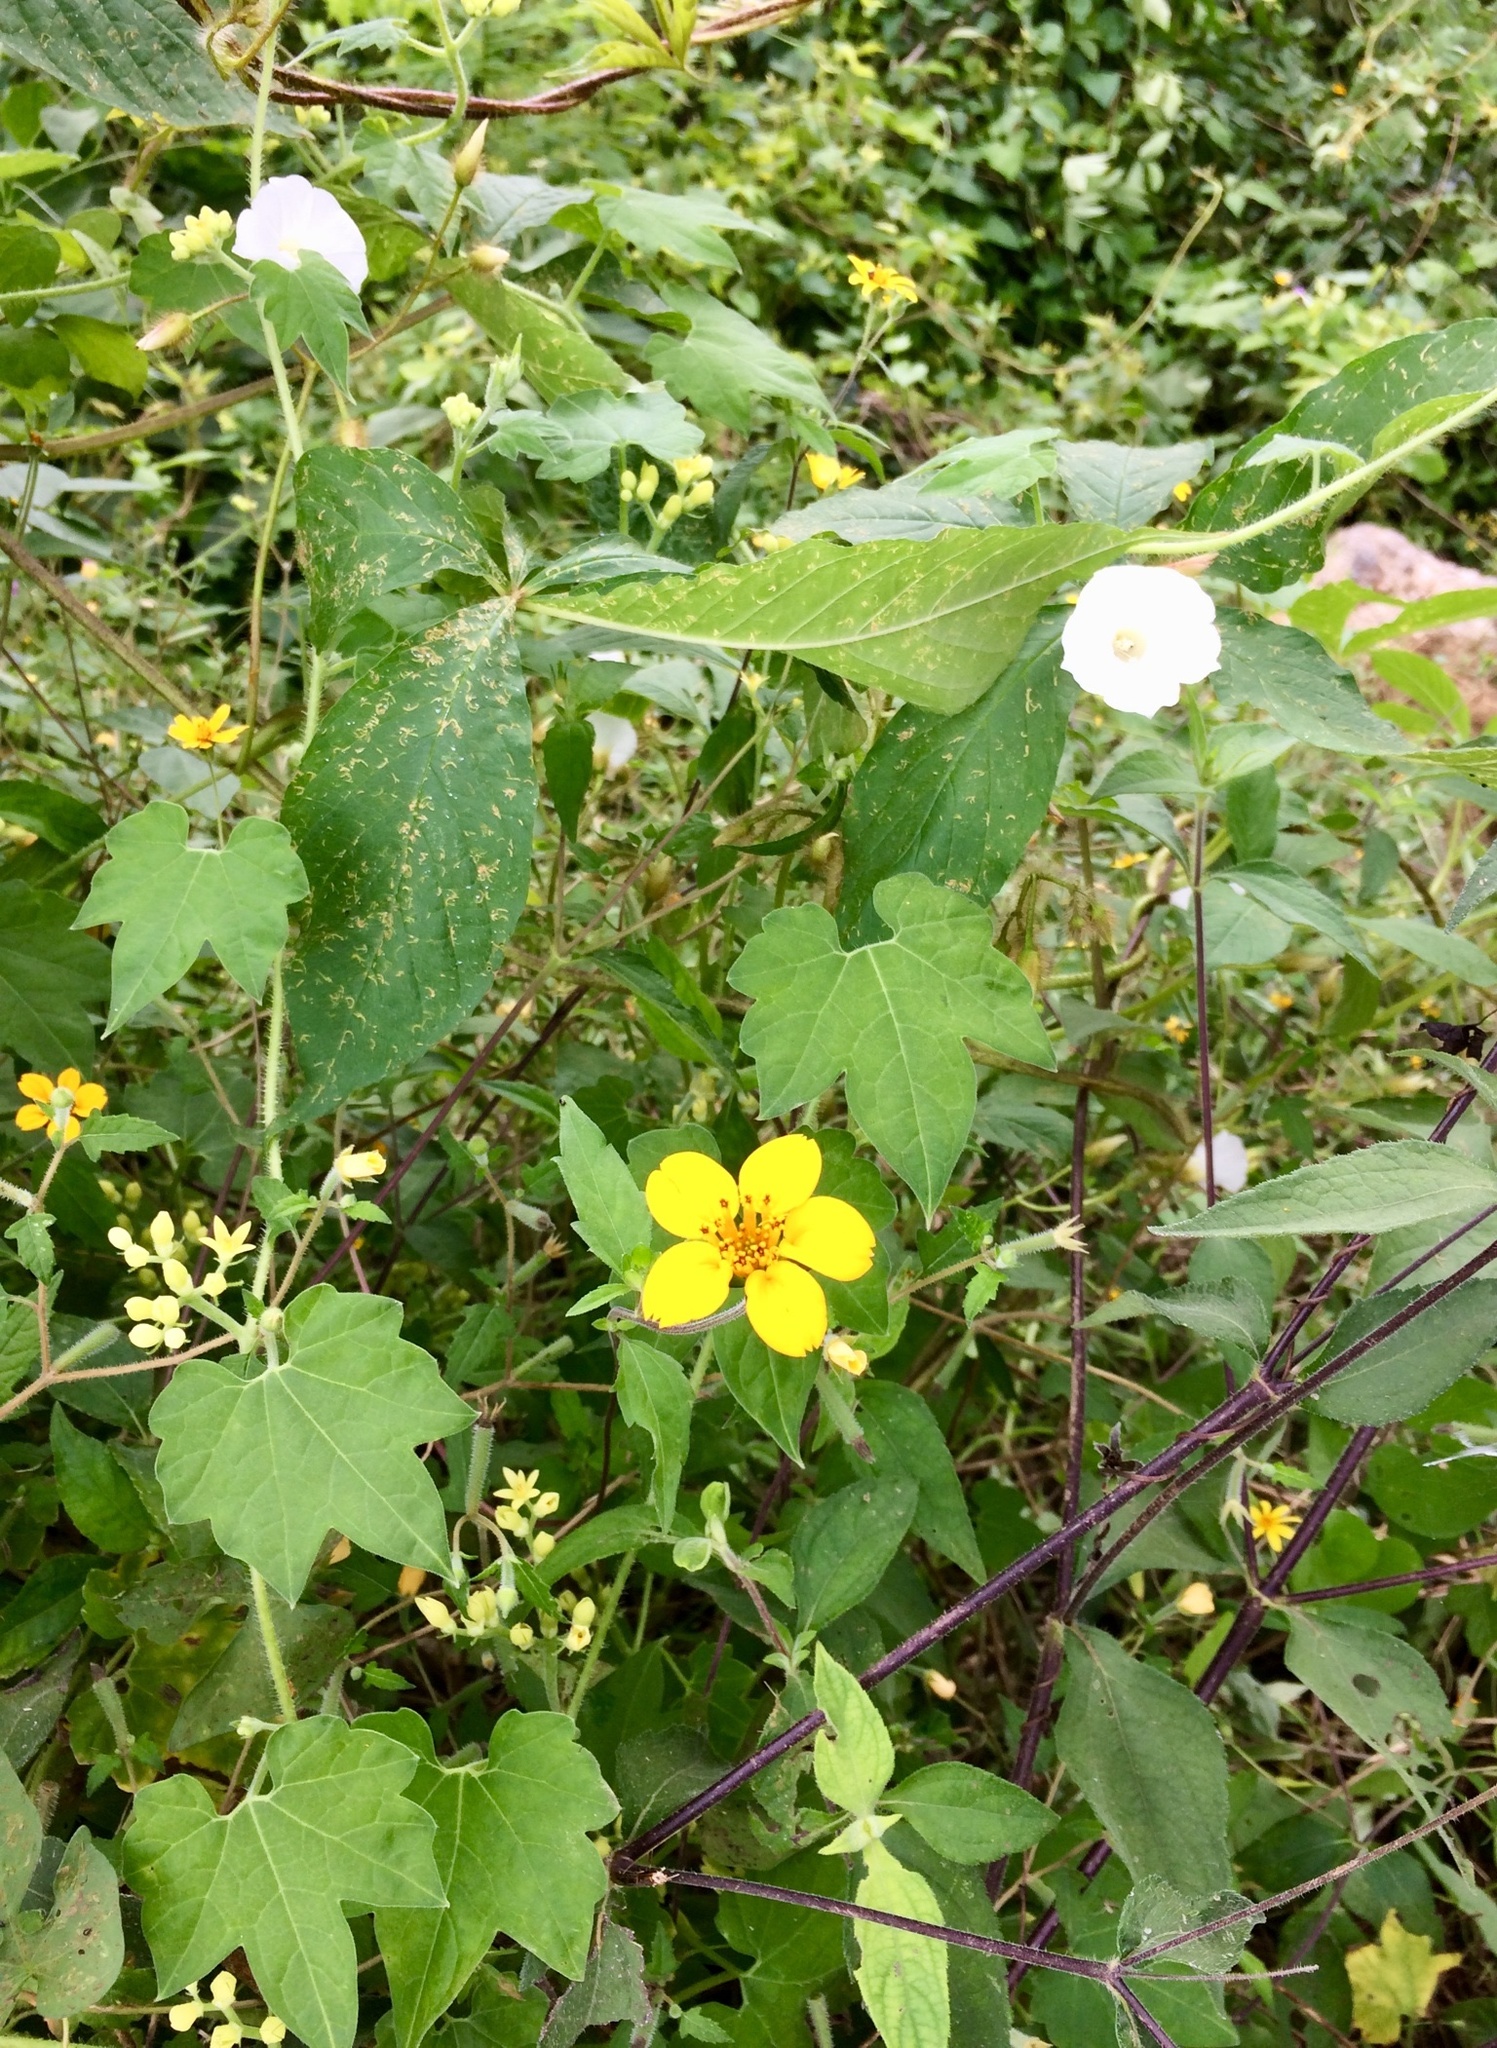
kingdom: Plantae
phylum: Tracheophyta
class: Magnoliopsida
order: Asterales
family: Asteraceae
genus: Sclerocarpus
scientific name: Sclerocarpus divaricatus
